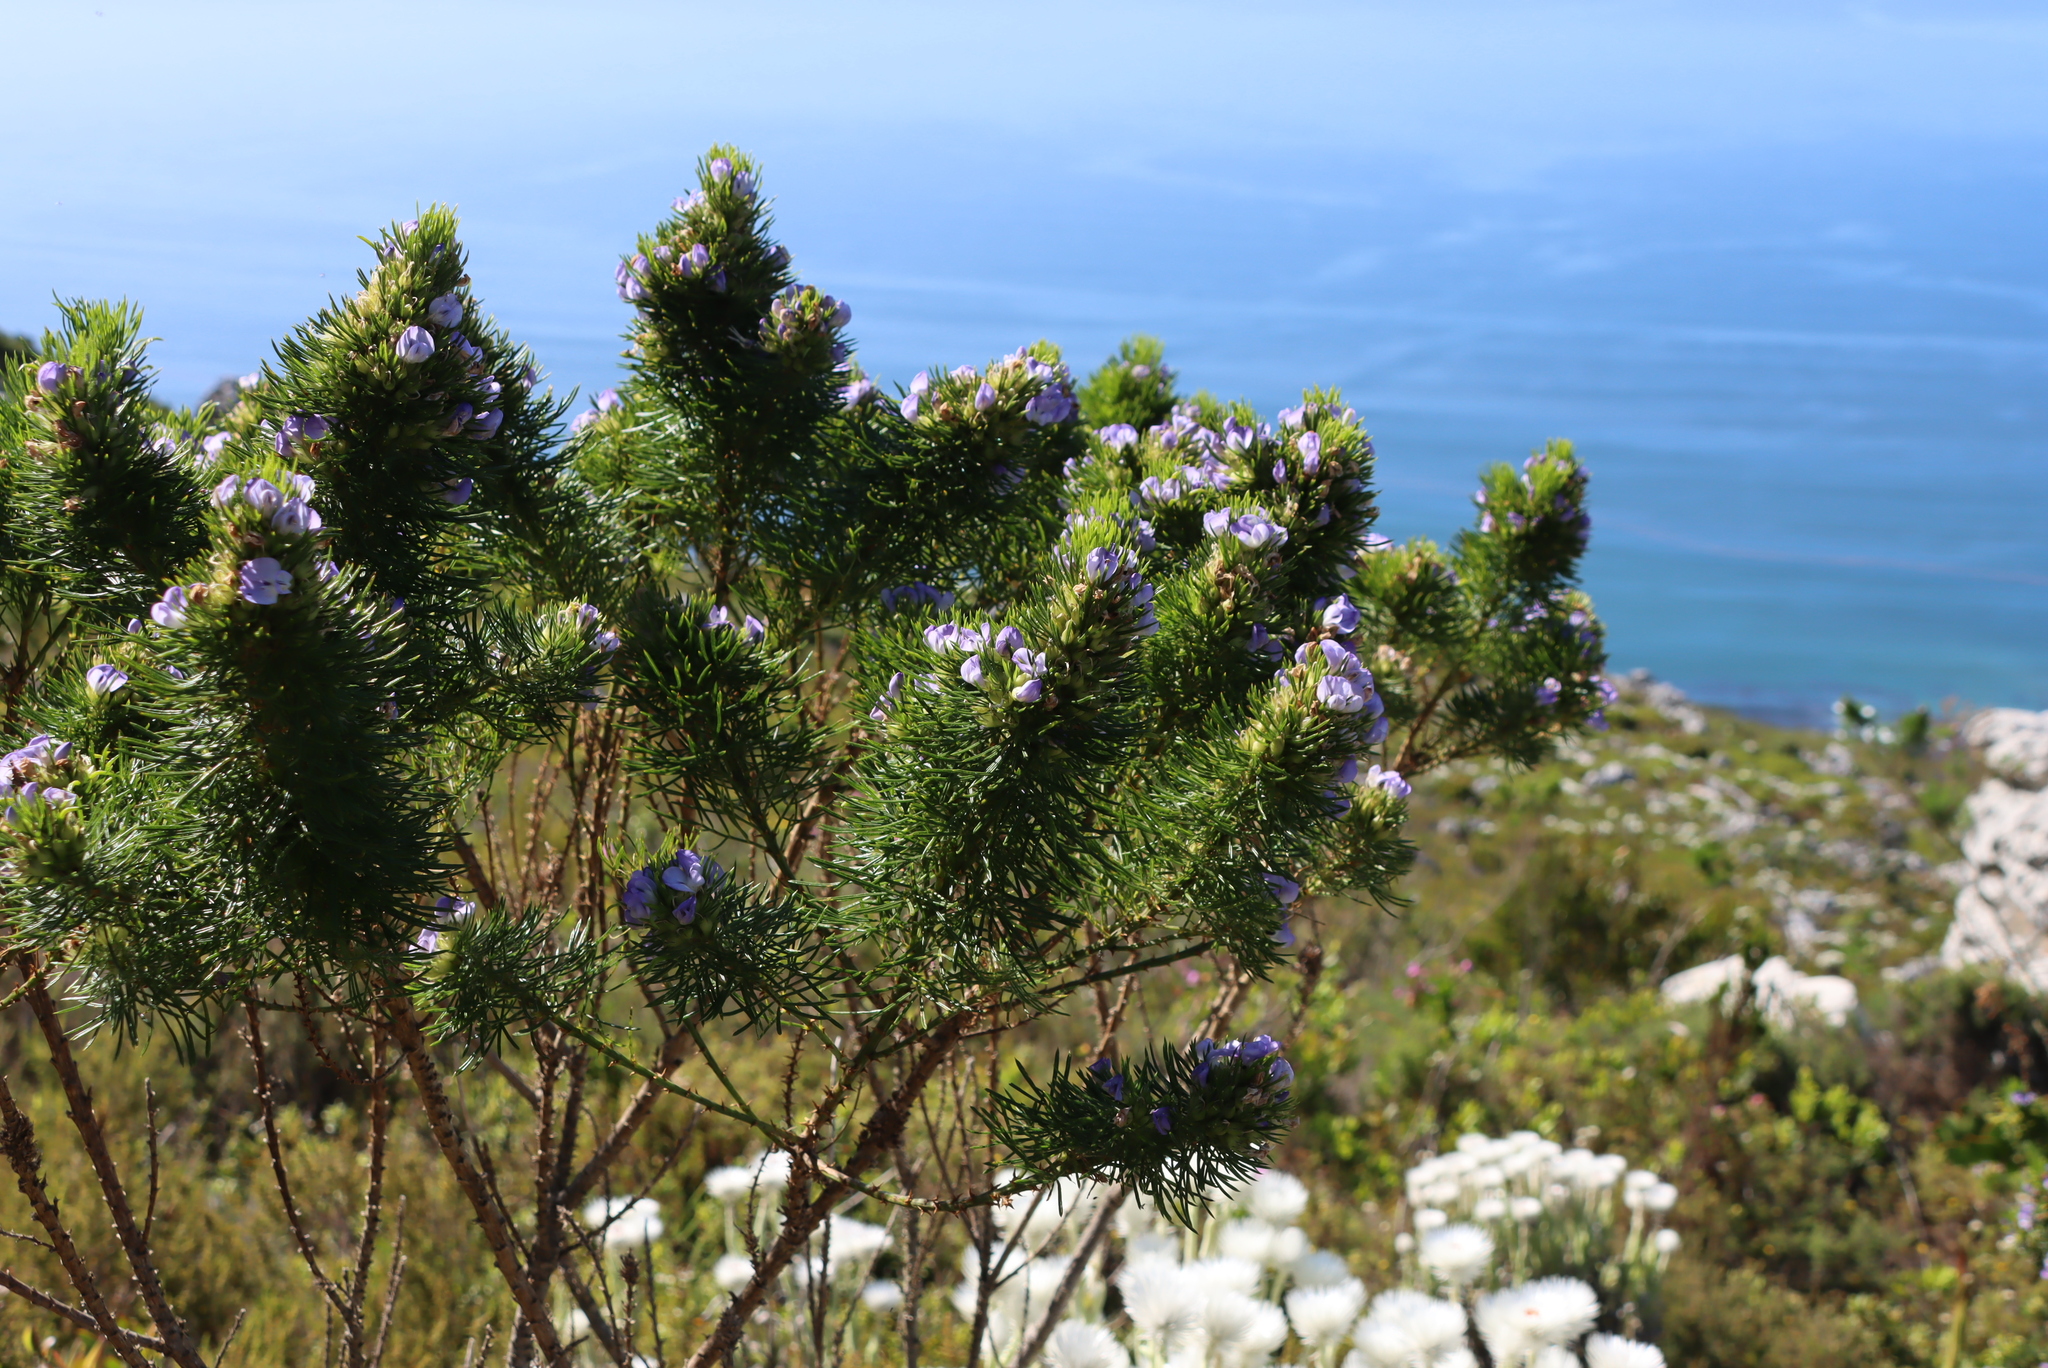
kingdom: Plantae
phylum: Tracheophyta
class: Magnoliopsida
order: Fabales
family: Fabaceae
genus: Psoralea
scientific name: Psoralea pinnata
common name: African scurfpea
